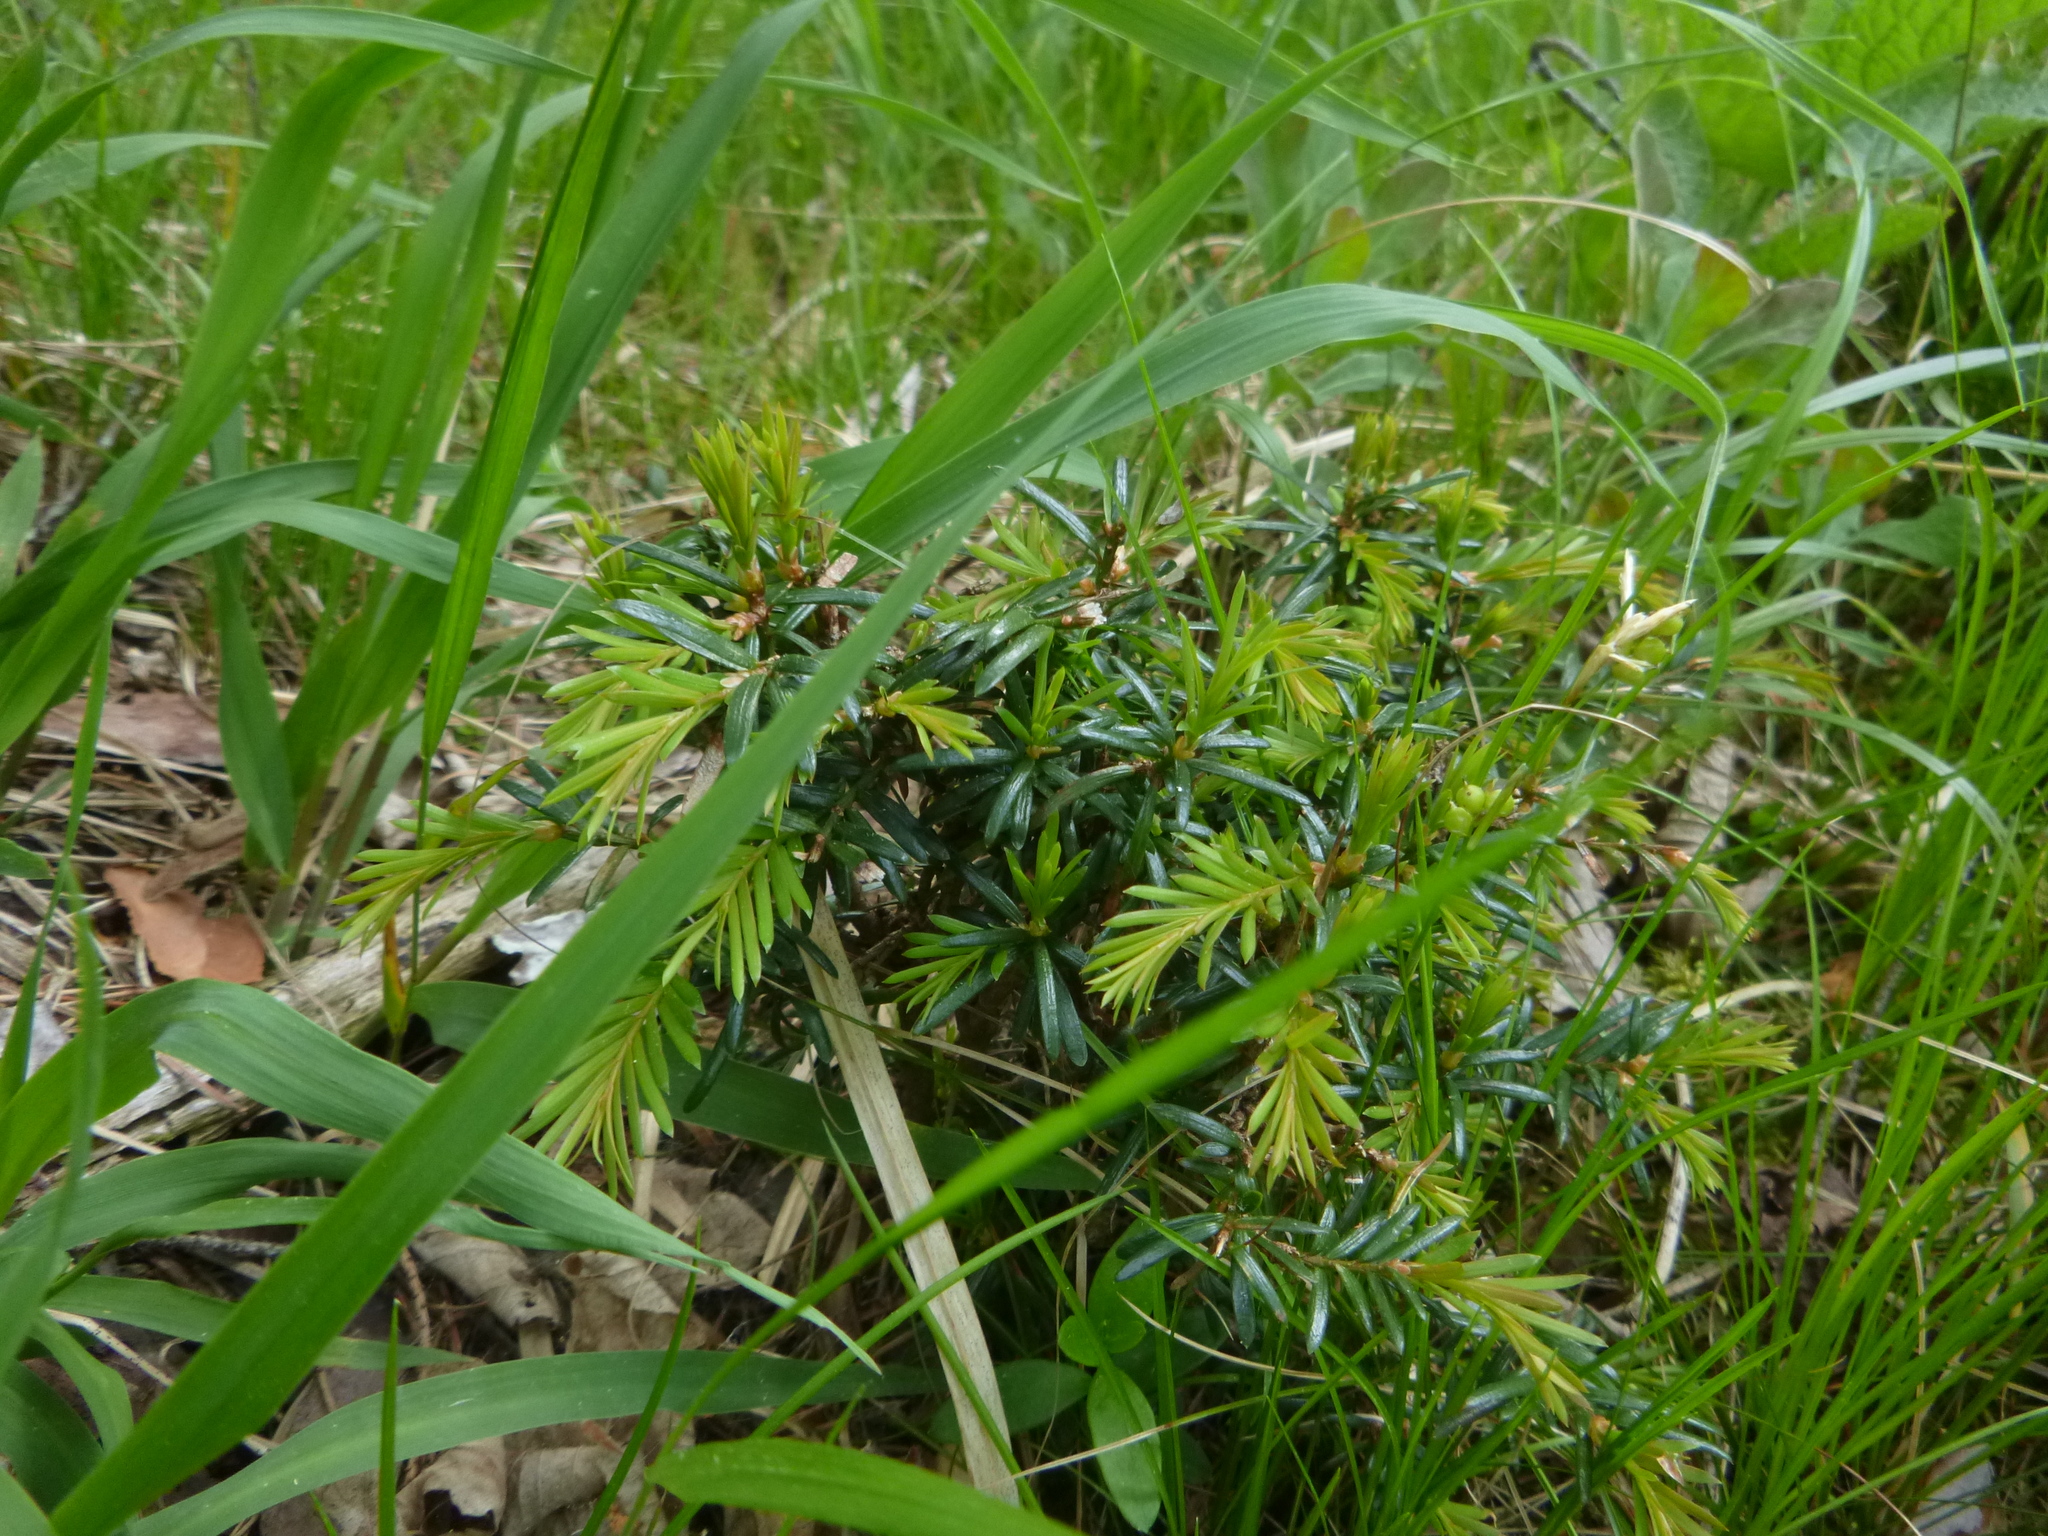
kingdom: Plantae
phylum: Tracheophyta
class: Pinopsida
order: Pinales
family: Taxaceae
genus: Taxus
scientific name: Taxus baccata
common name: Yew
